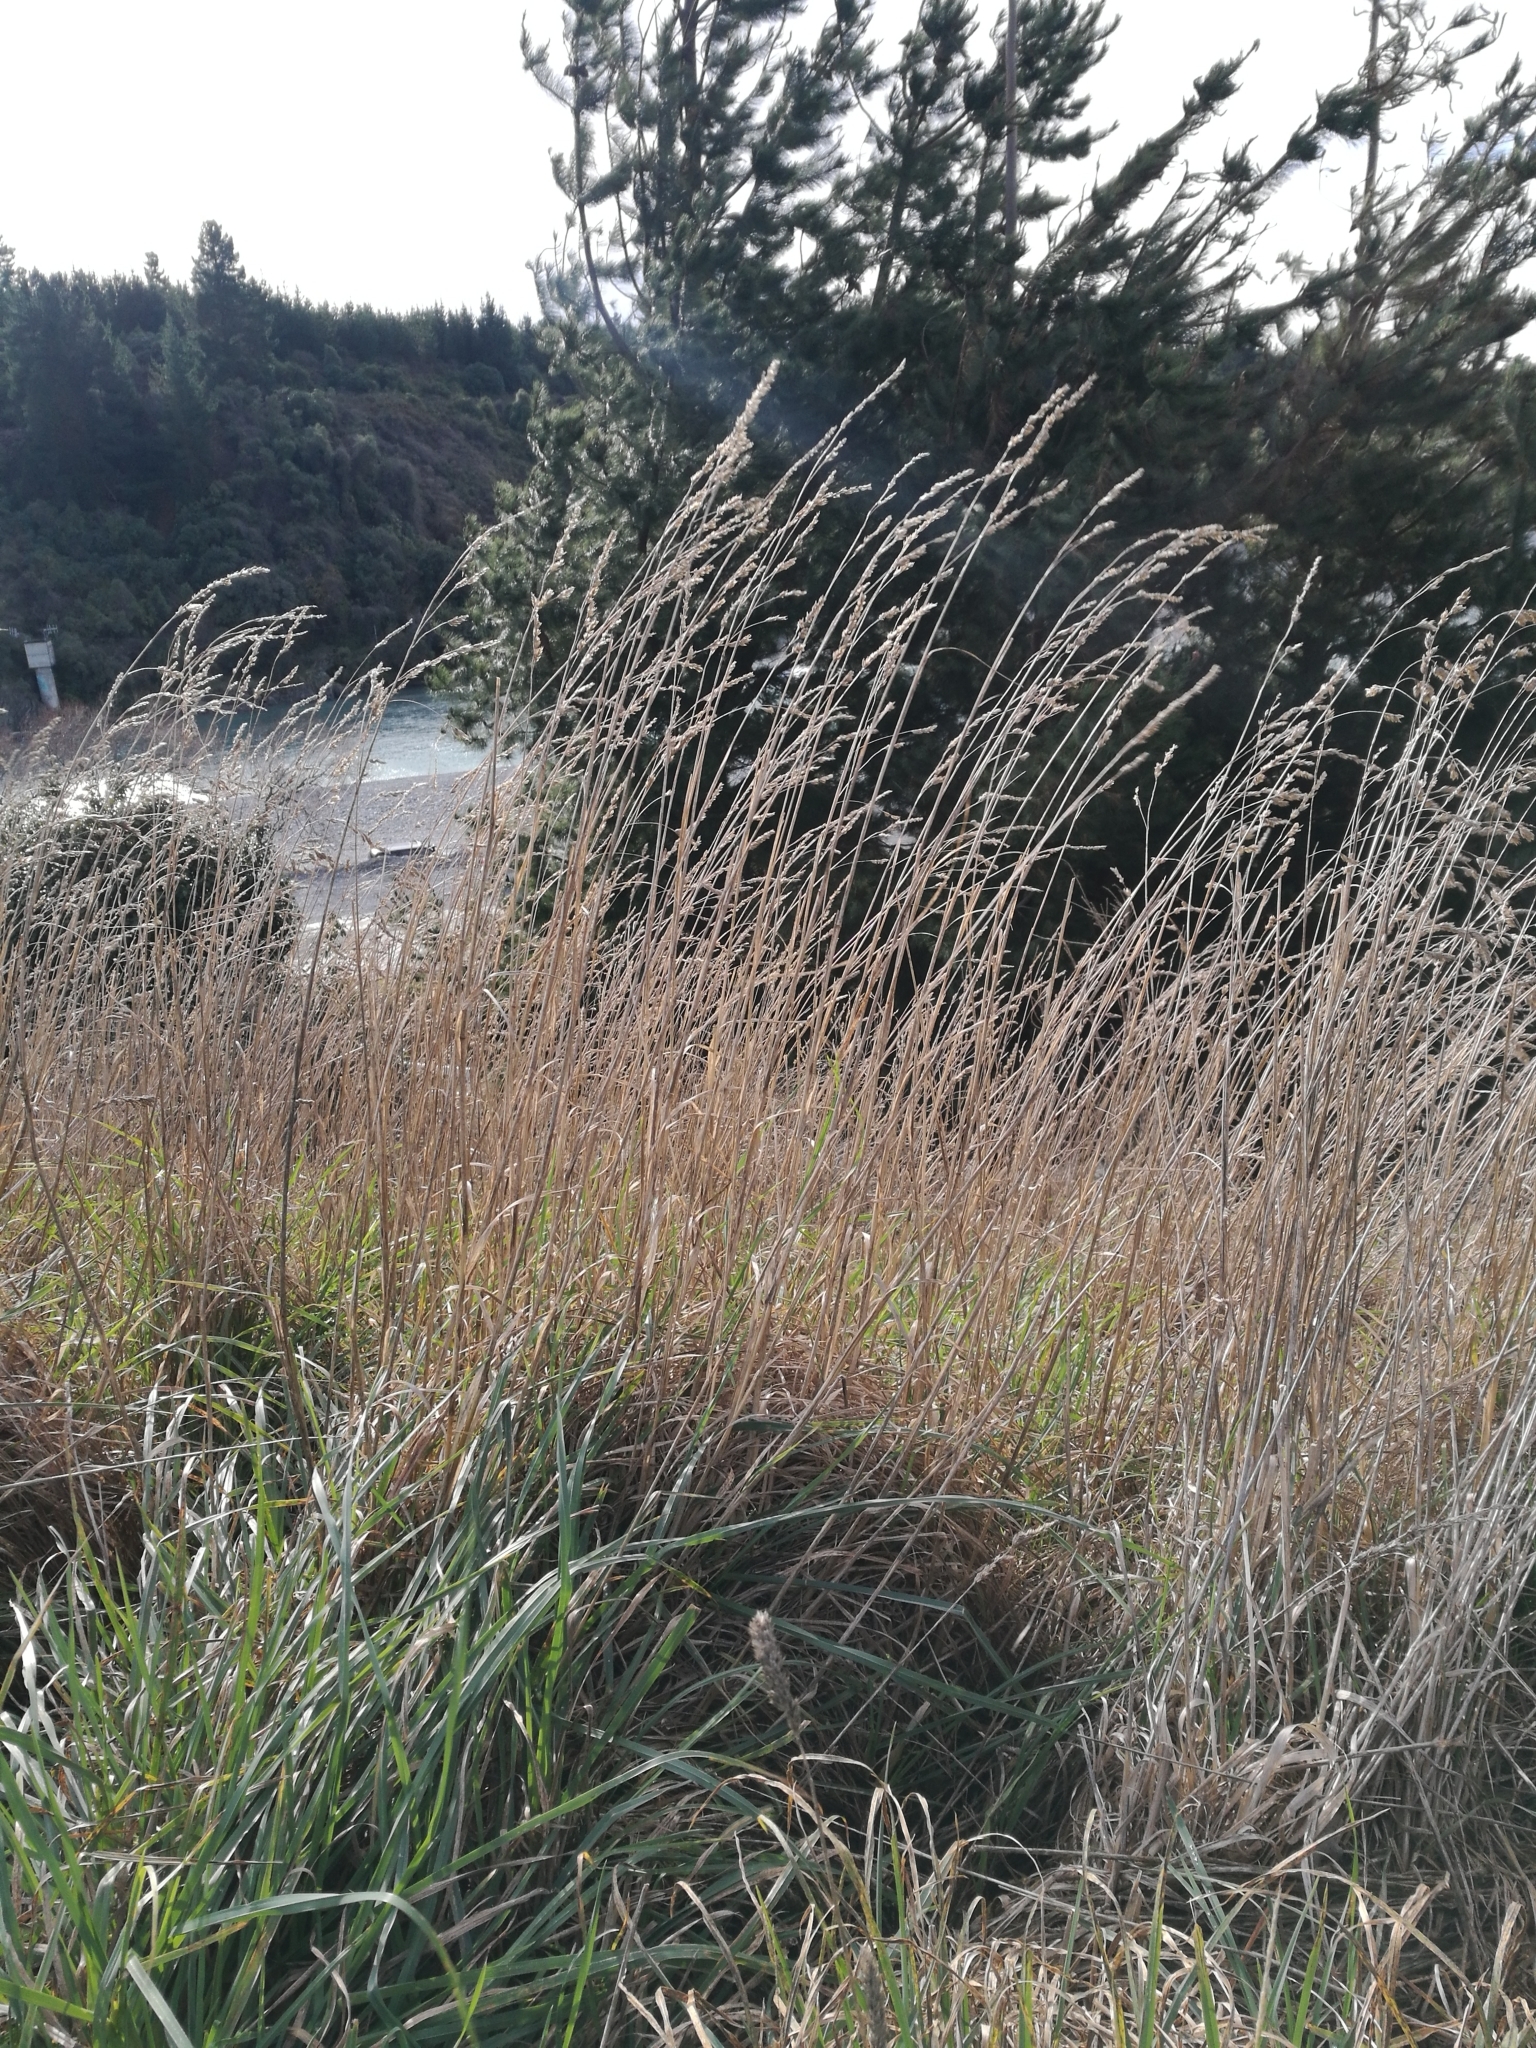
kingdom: Plantae
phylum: Tracheophyta
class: Liliopsida
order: Poales
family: Poaceae
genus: Dactylis
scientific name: Dactylis glomerata
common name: Orchardgrass
